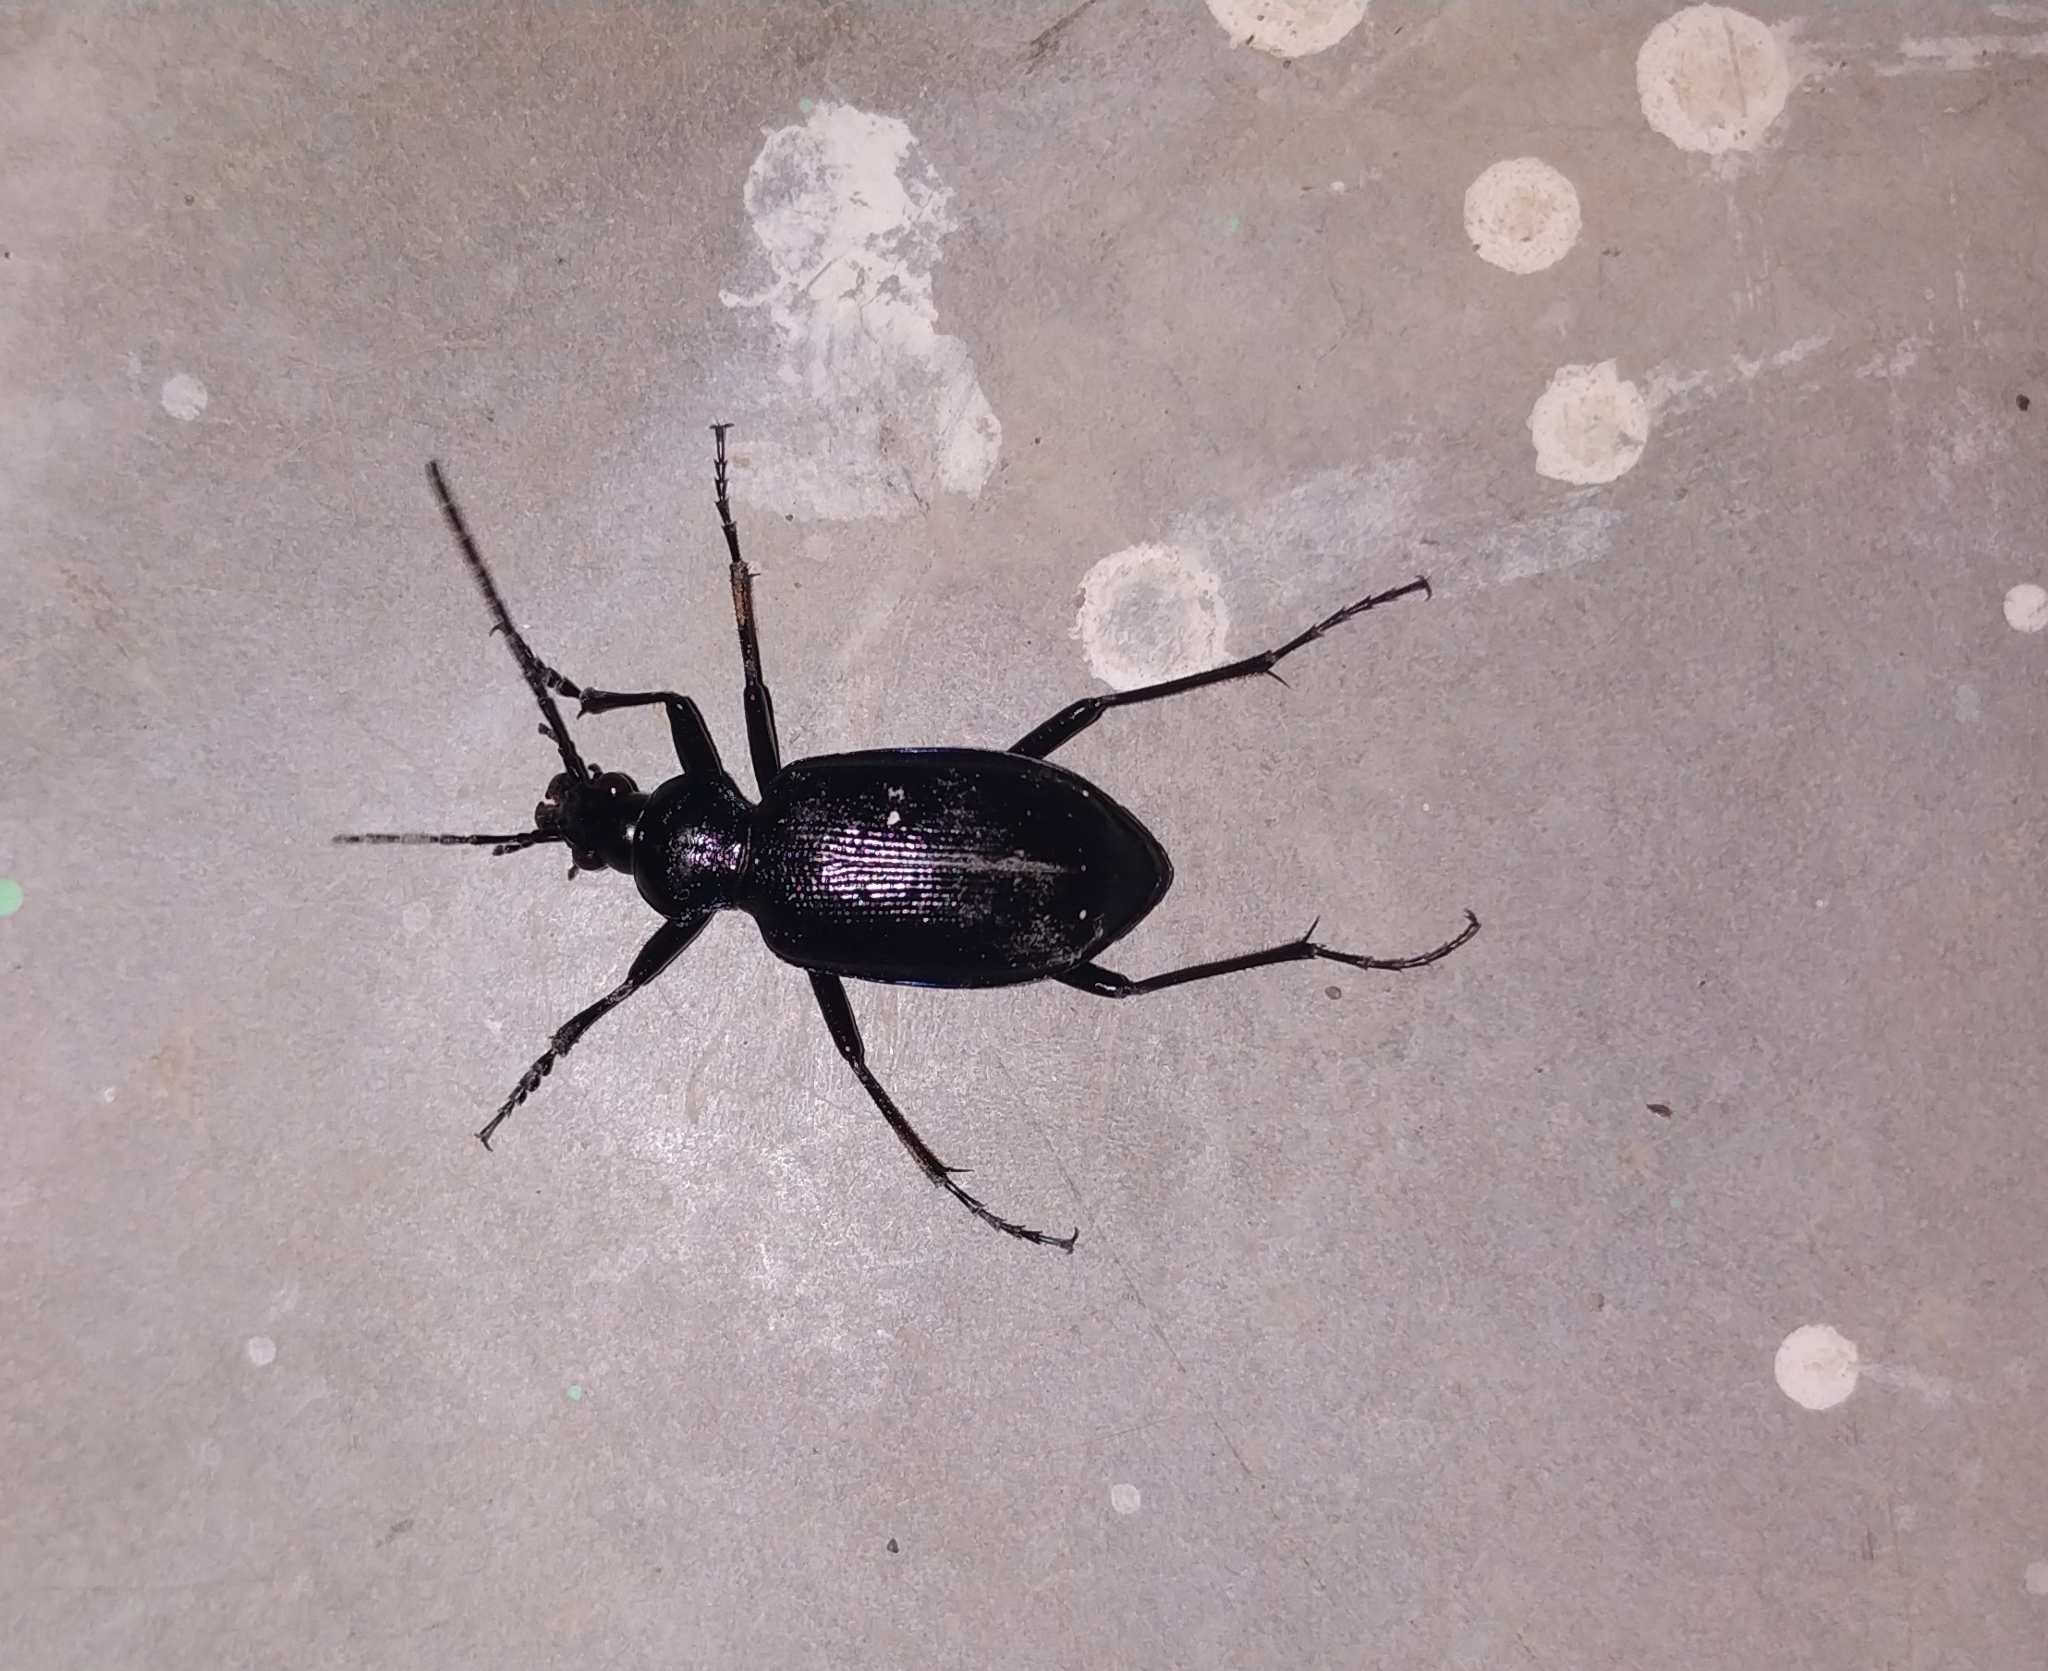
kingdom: Animalia
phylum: Arthropoda
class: Insecta
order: Coleoptera
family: Carabidae
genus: Calosoma
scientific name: Calosoma angulatum
